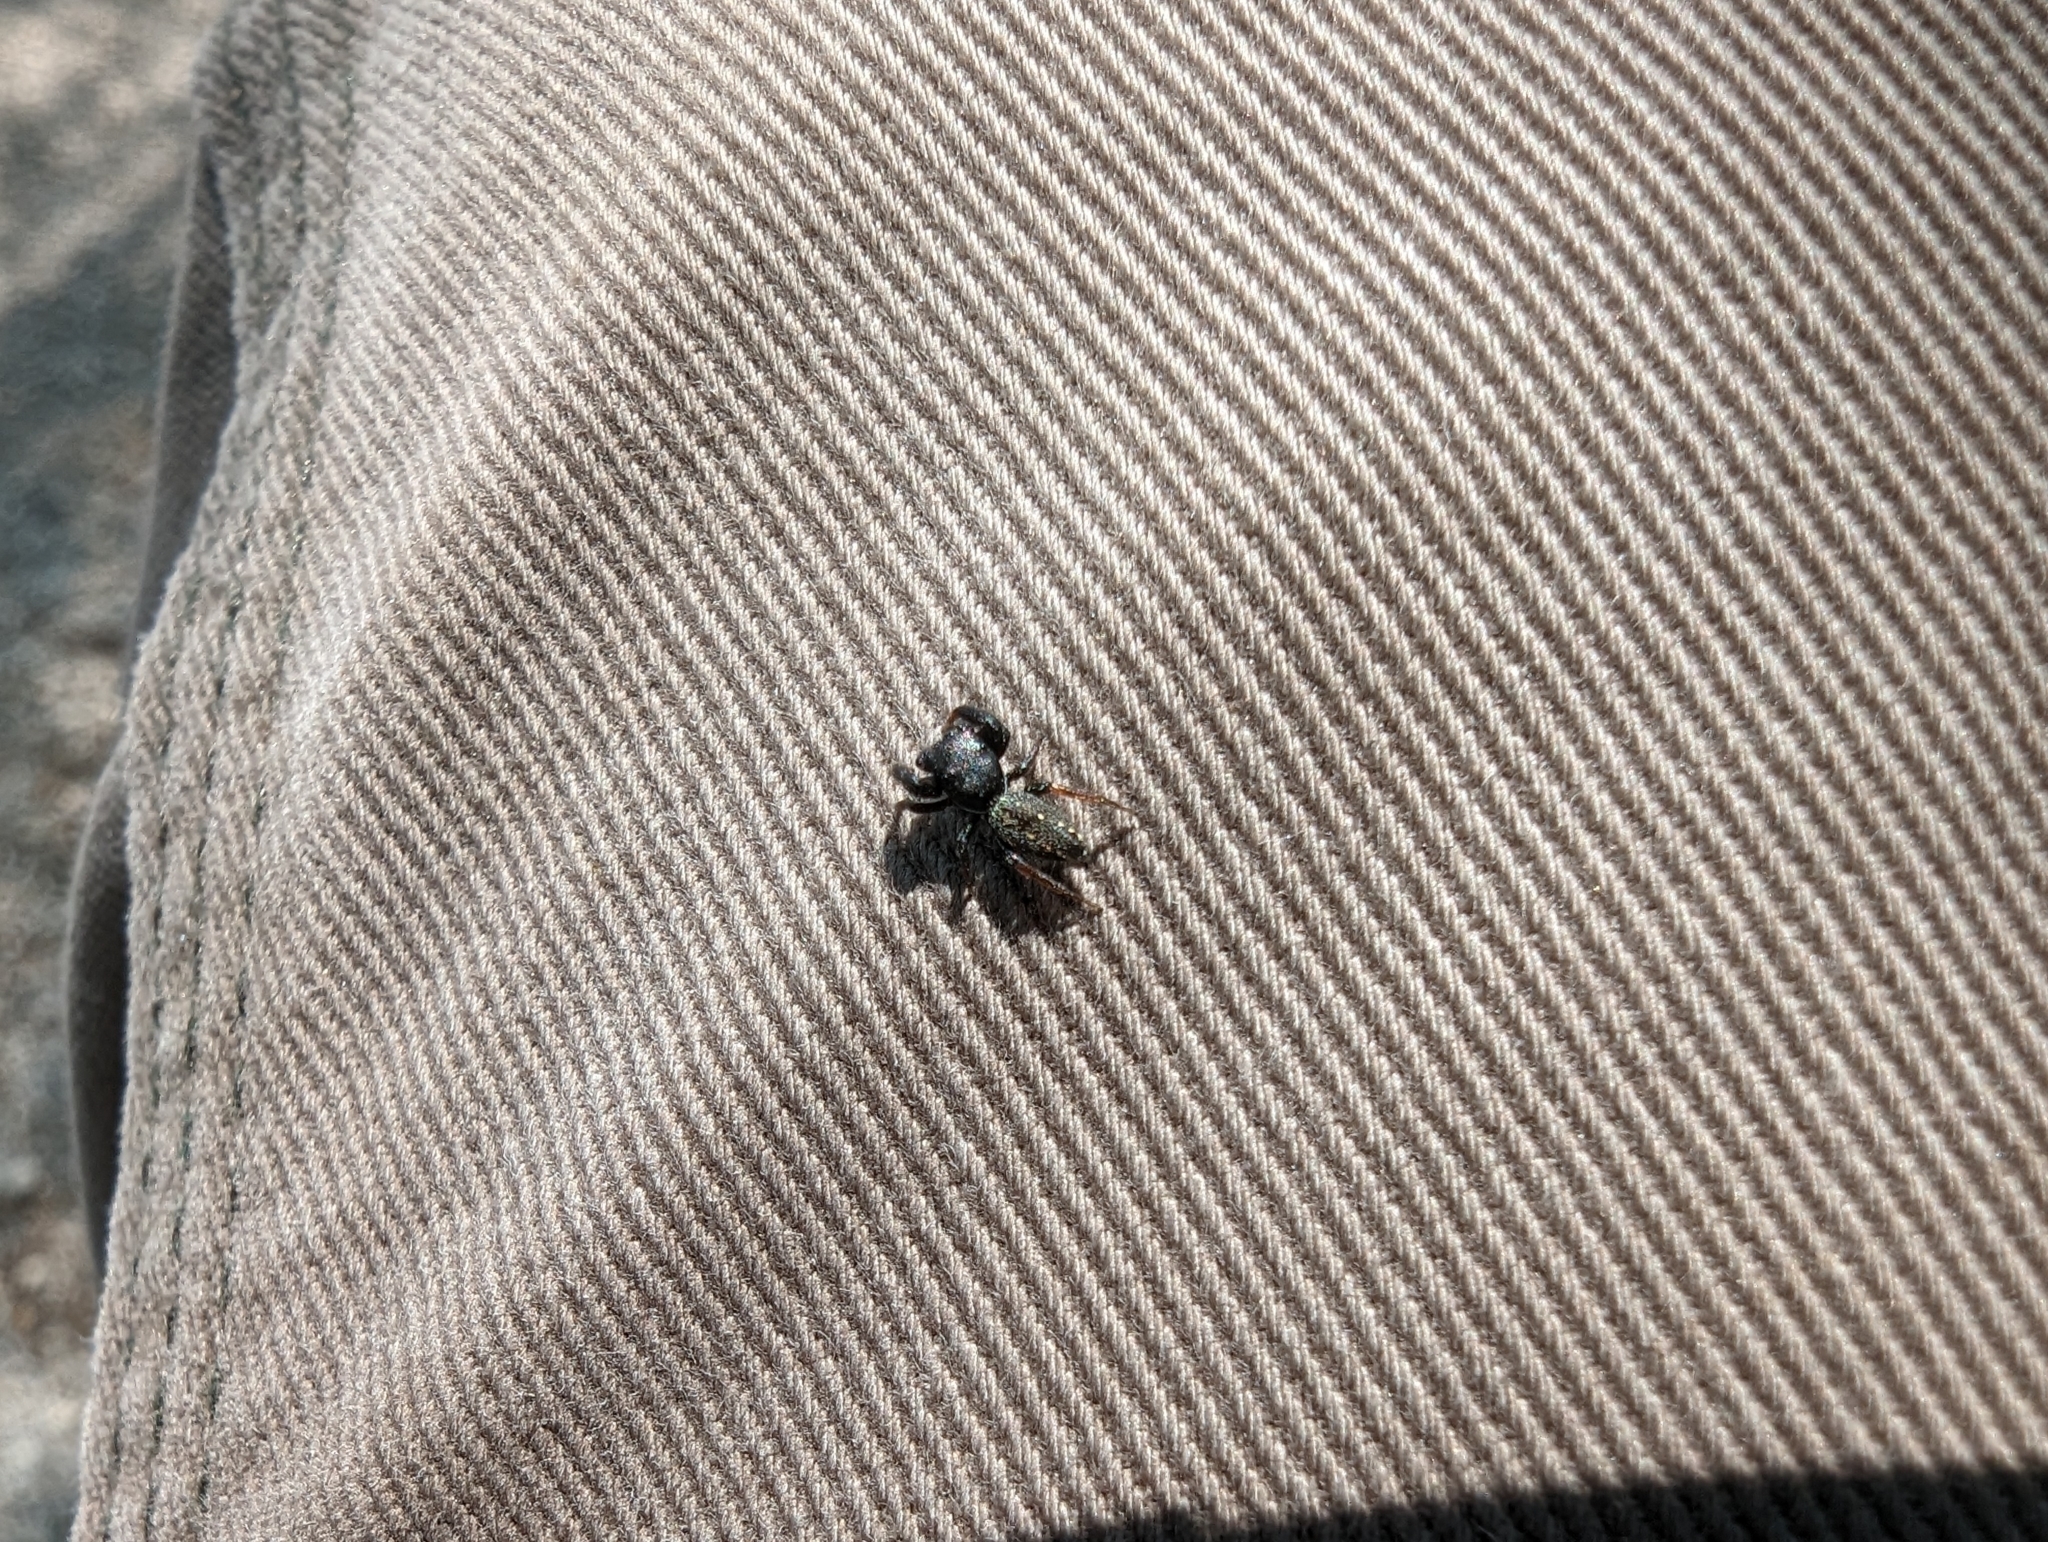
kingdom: Animalia
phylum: Arthropoda
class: Arachnida
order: Araneae
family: Salticidae
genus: Metacyrba
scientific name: Metacyrba taeniola
